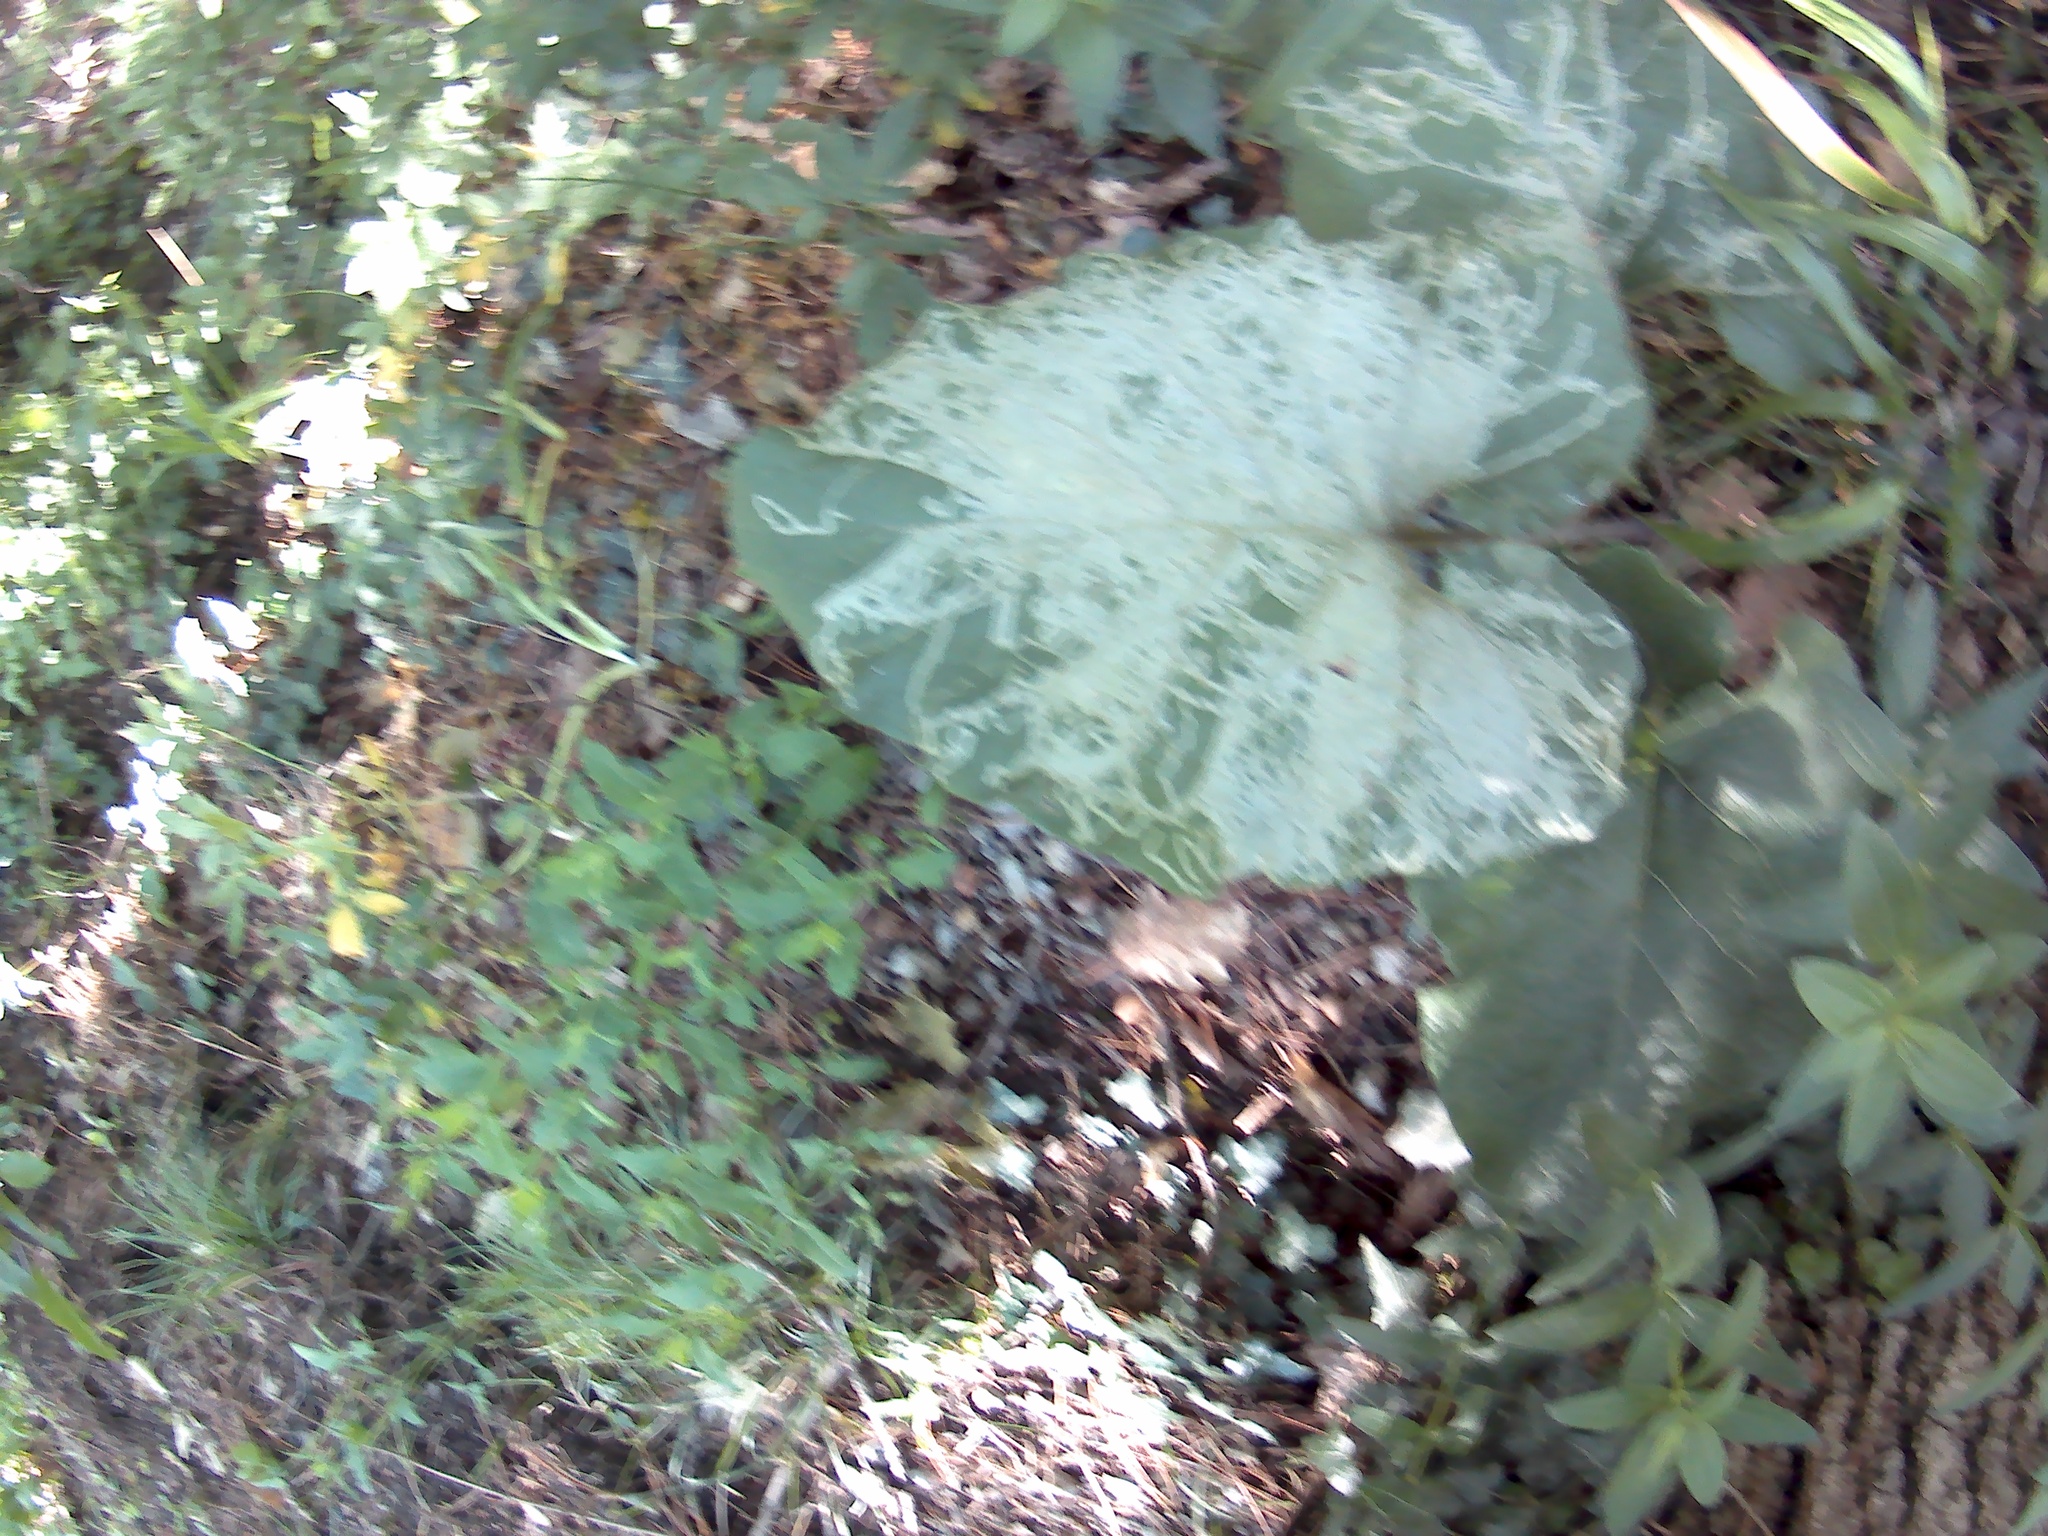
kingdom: Plantae
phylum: Tracheophyta
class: Magnoliopsida
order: Asterales
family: Asteraceae
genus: Arctium
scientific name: Arctium
